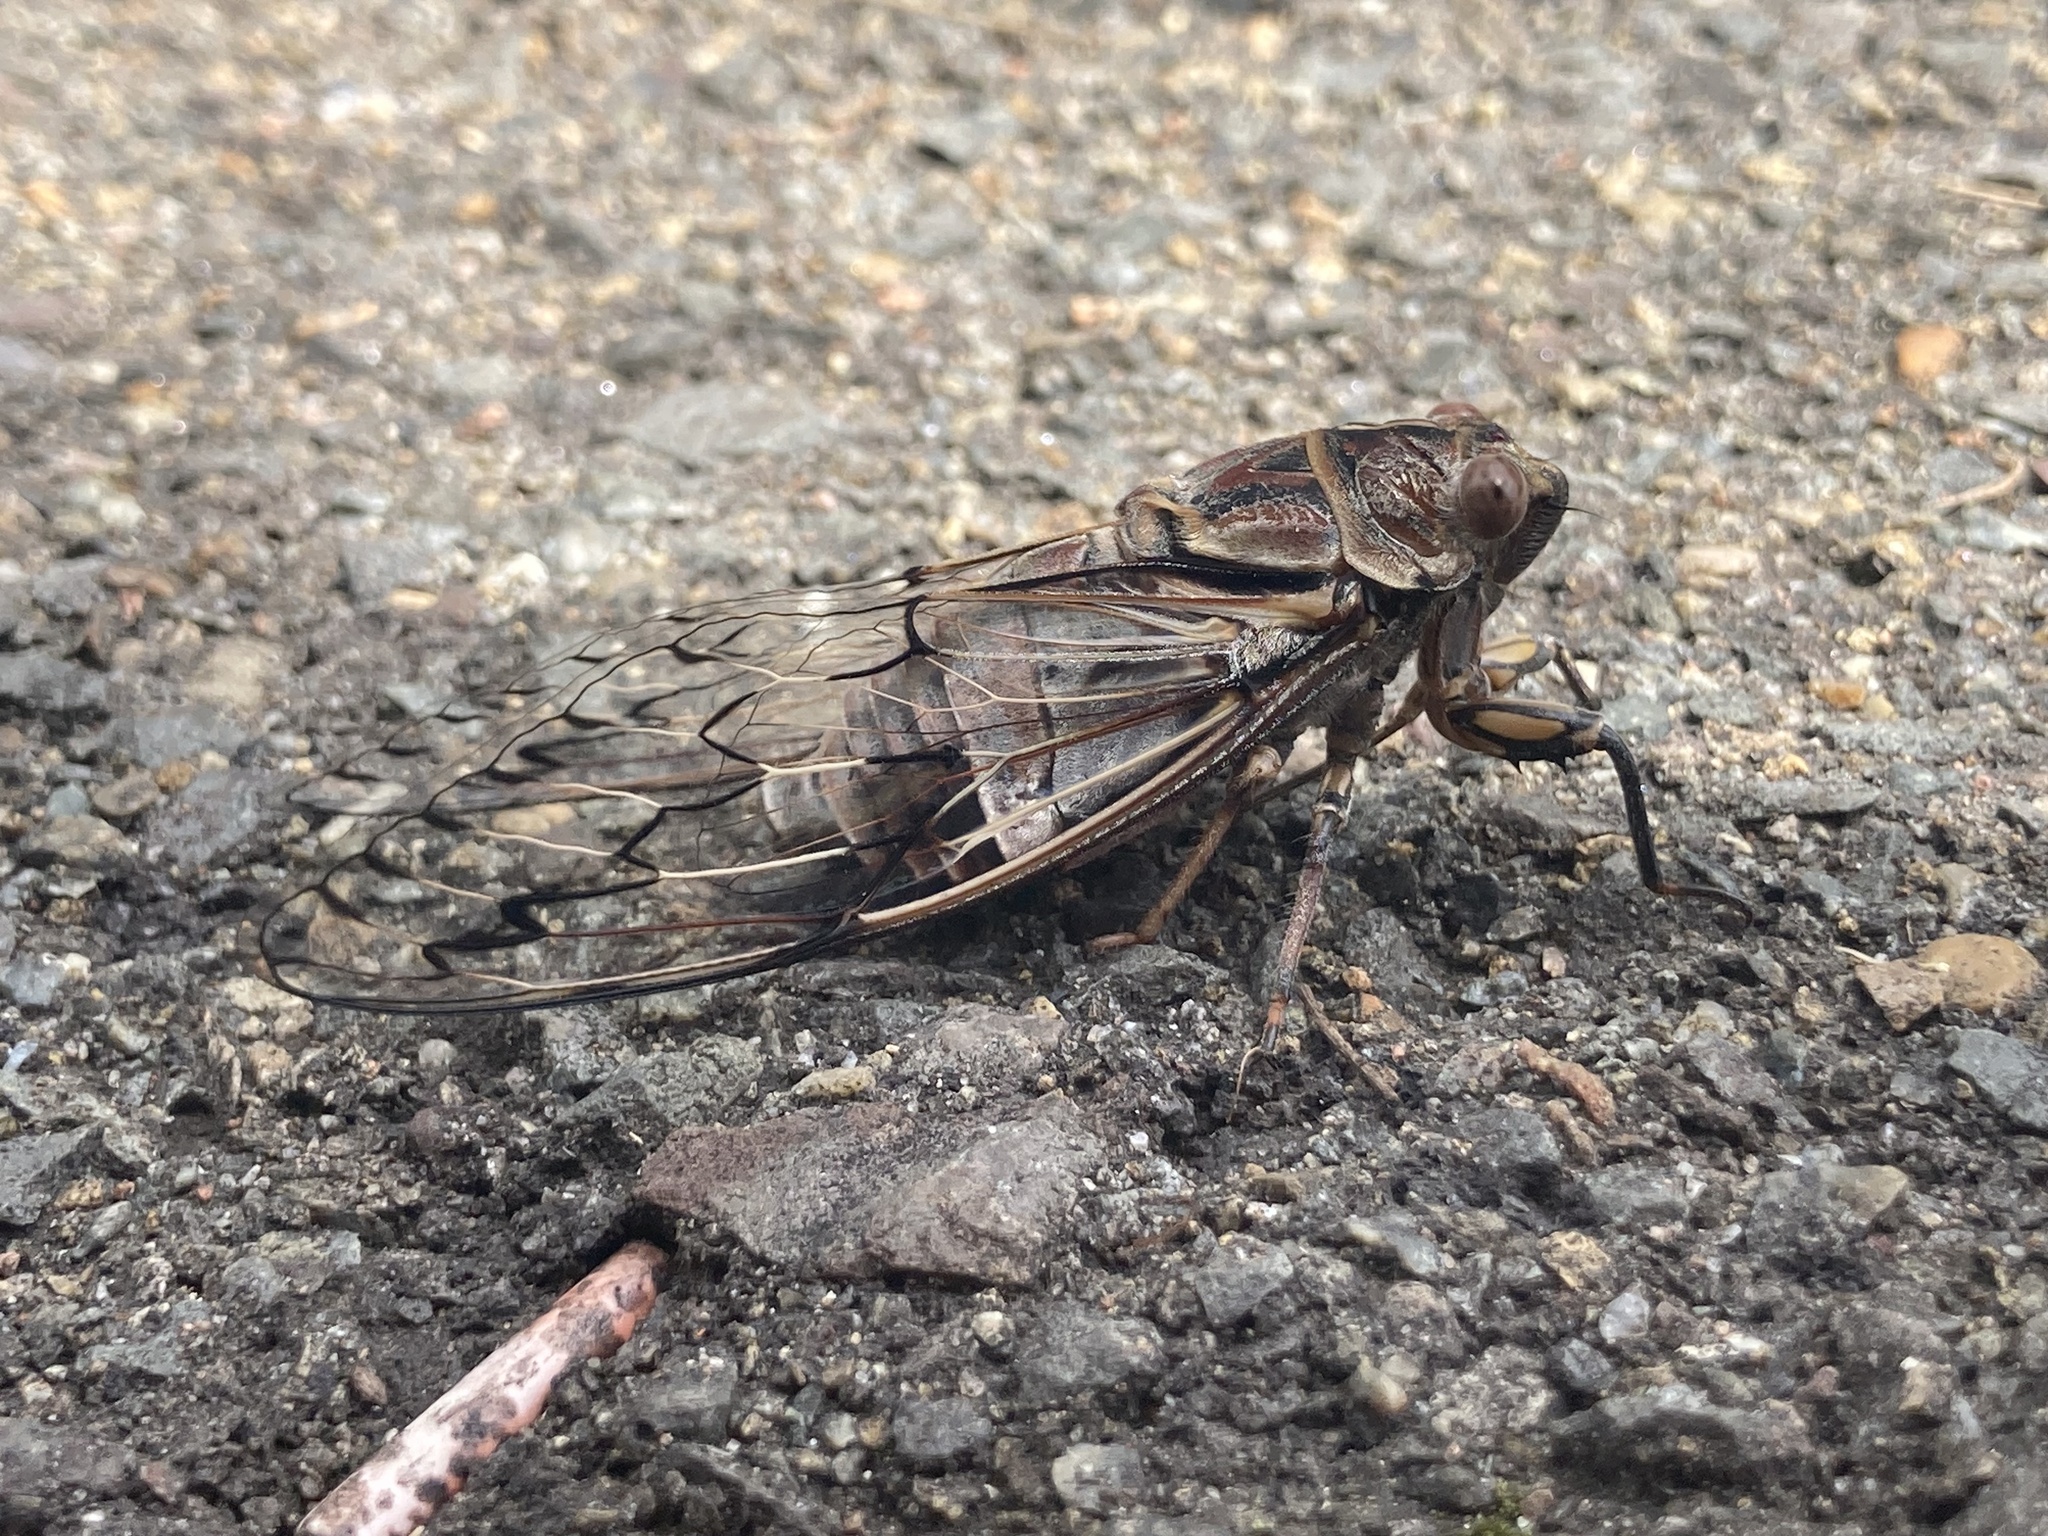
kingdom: Animalia
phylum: Arthropoda
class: Insecta
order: Hemiptera
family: Cicadidae
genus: Henicopsaltria
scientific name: Henicopsaltria eydouxii
